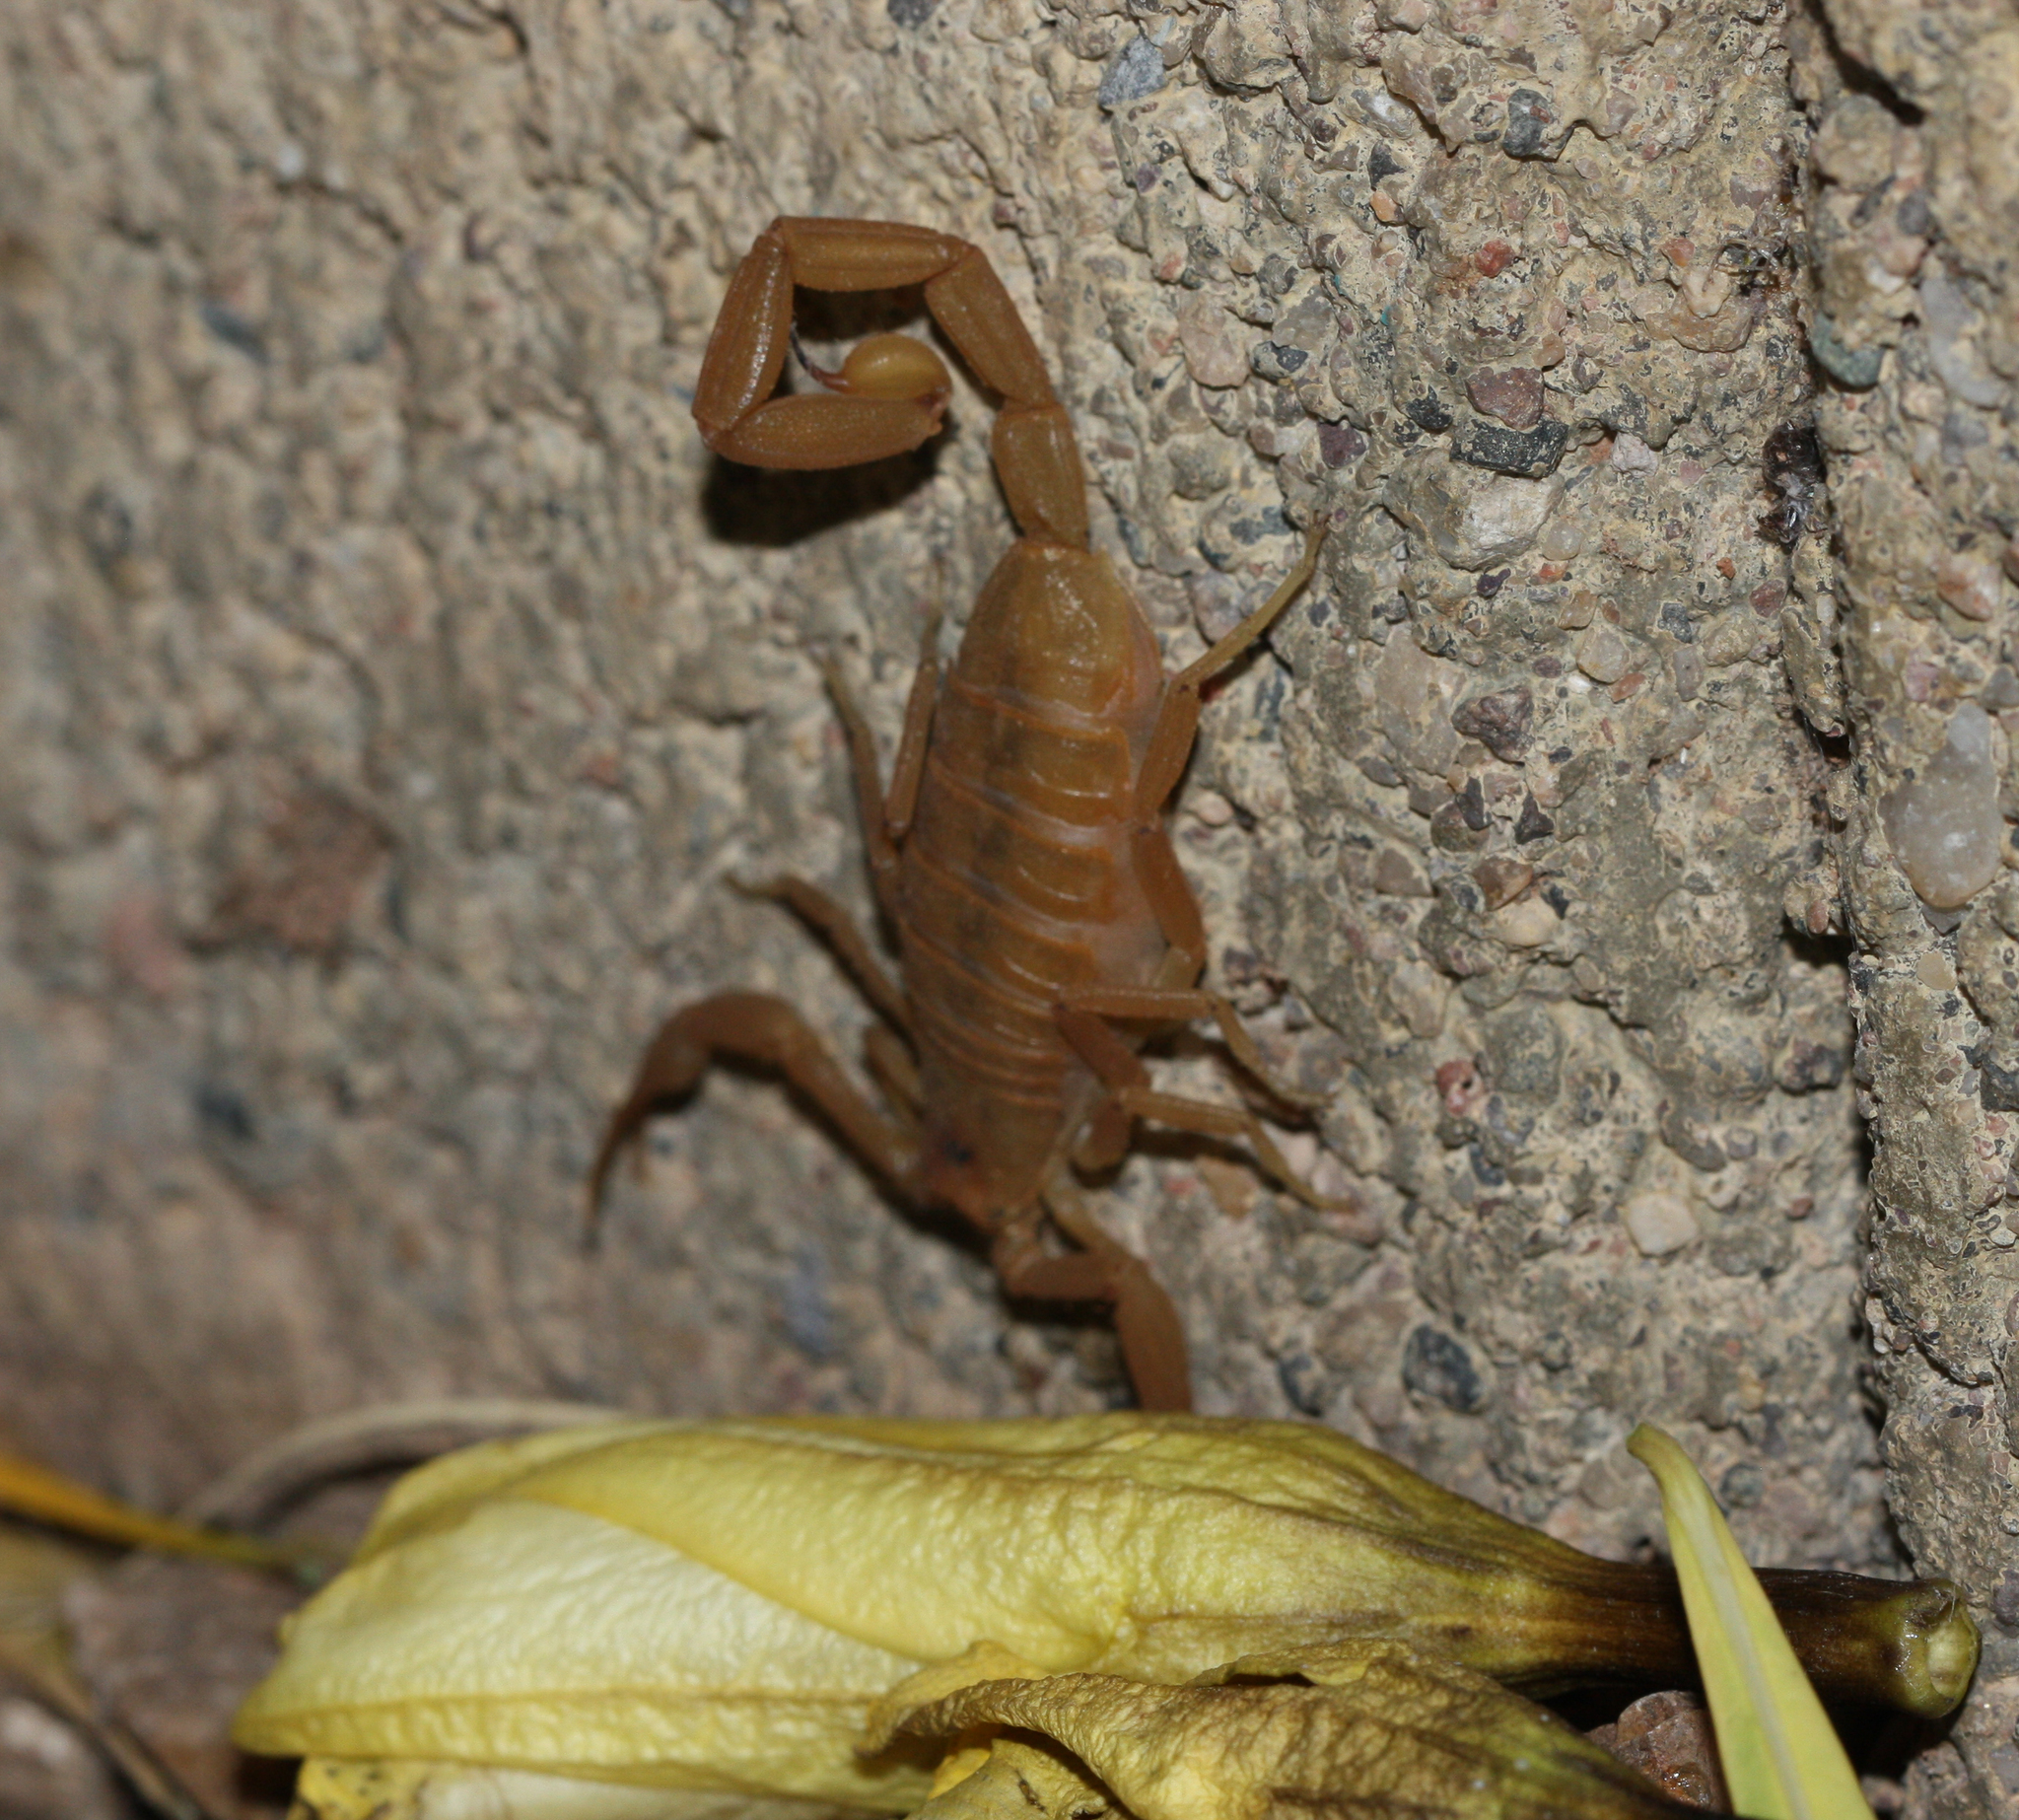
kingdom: Animalia
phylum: Arthropoda
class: Arachnida
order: Scorpiones
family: Buthidae
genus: Centruroides
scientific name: Centruroides sculpturatus
